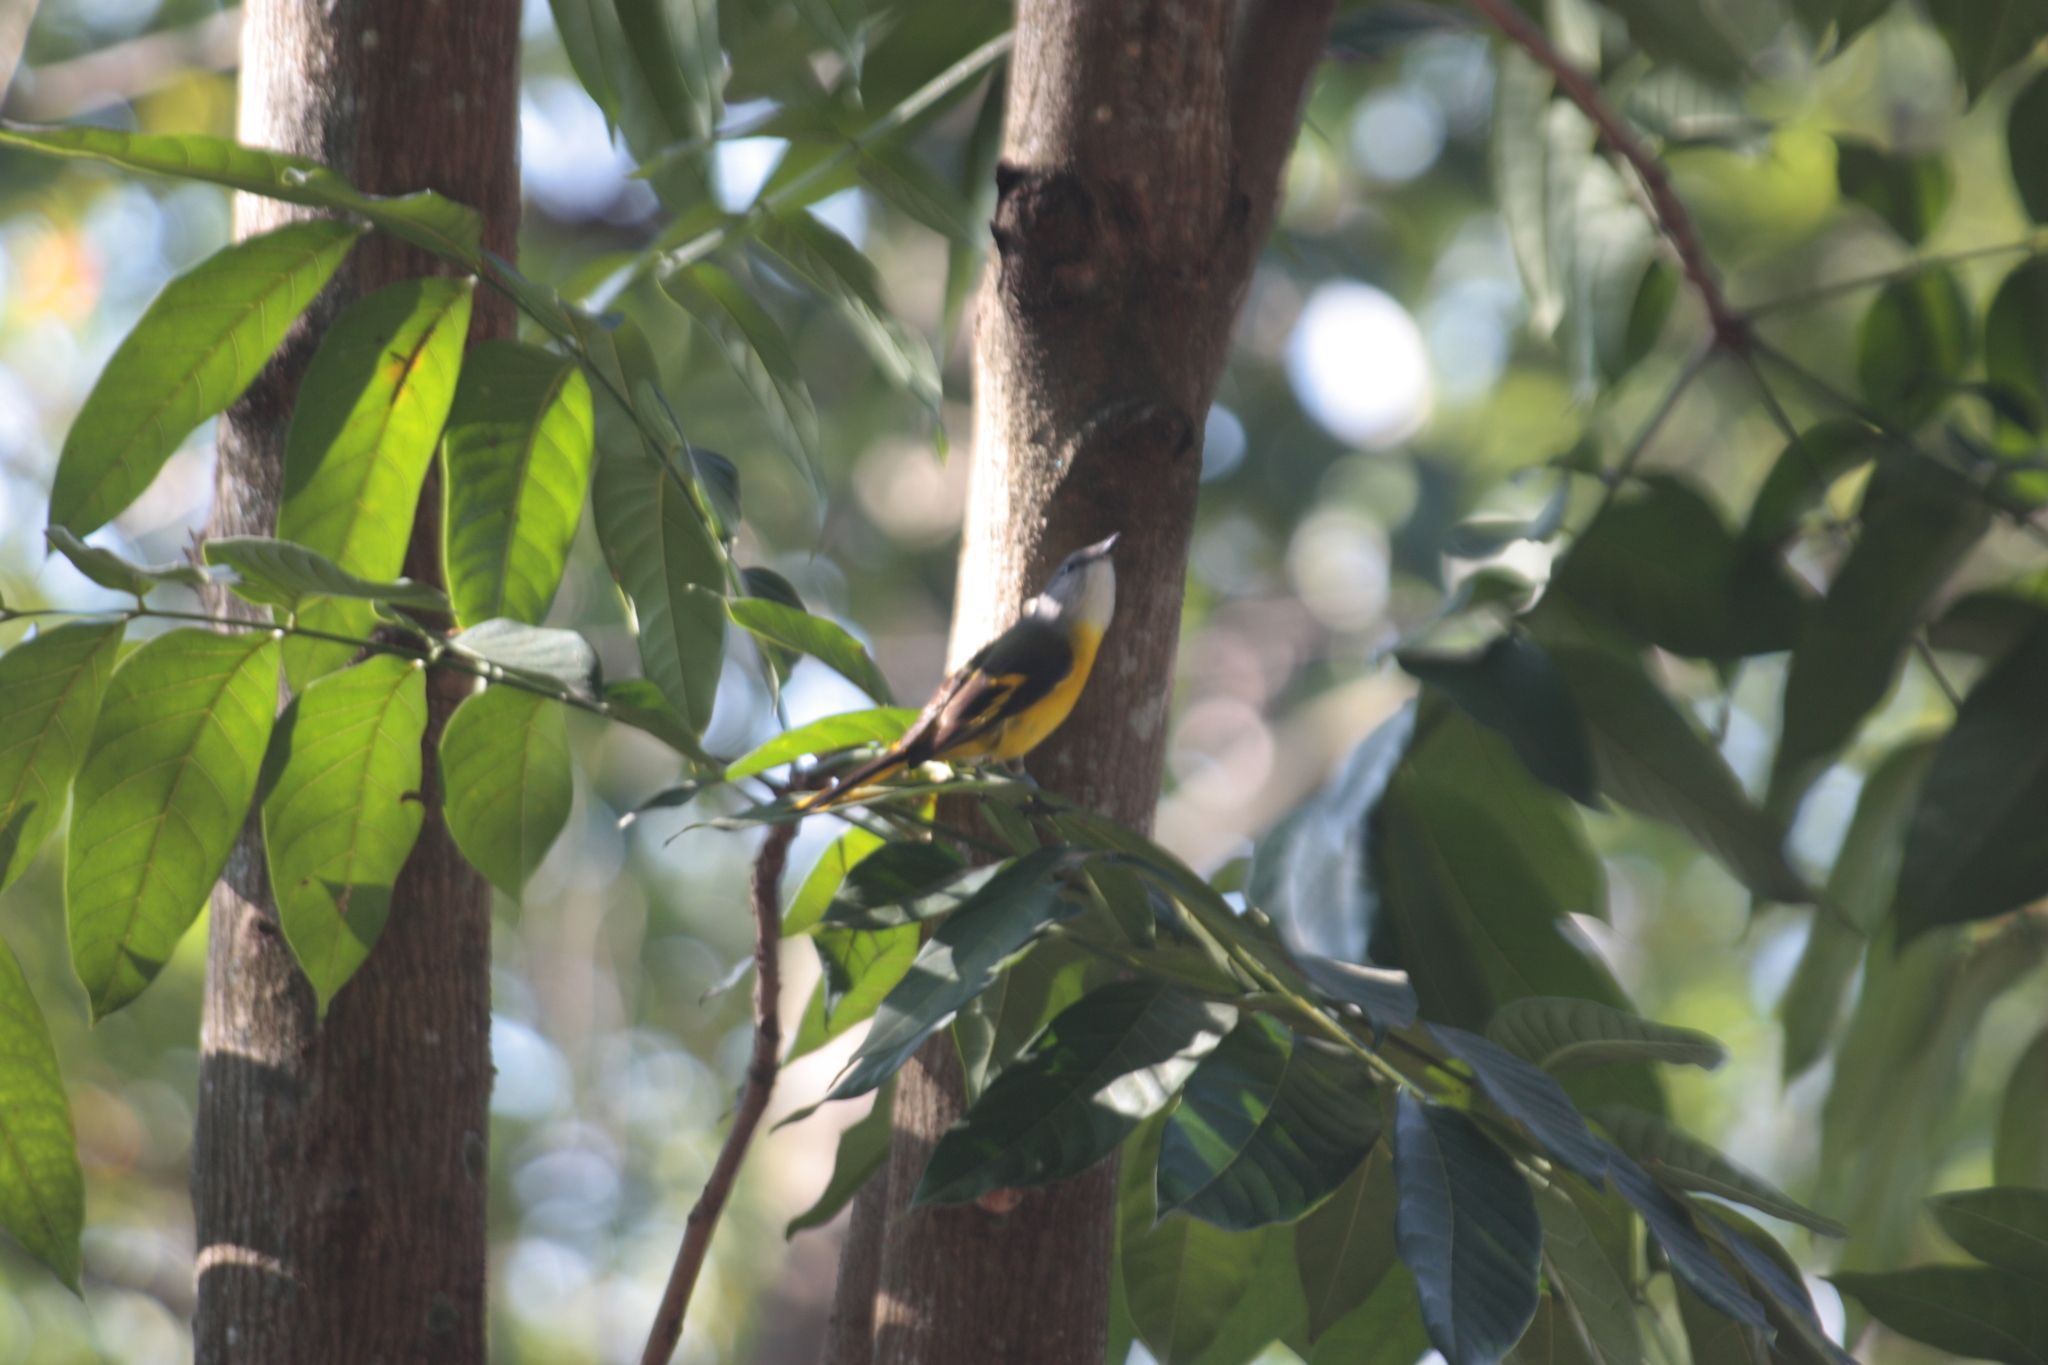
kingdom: Animalia
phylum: Chordata
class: Aves
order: Passeriformes
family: Campephagidae
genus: Pericrocotus
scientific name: Pericrocotus solaris
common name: Grey-chinned minivet
